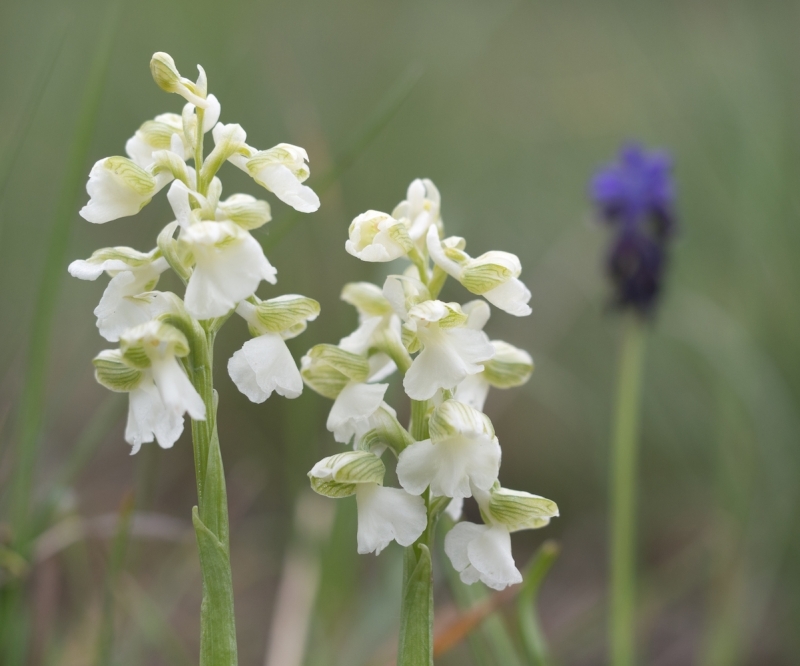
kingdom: Plantae
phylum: Tracheophyta
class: Liliopsida
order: Asparagales
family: Orchidaceae
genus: Anacamptis
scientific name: Anacamptis morio
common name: Green-winged orchid
